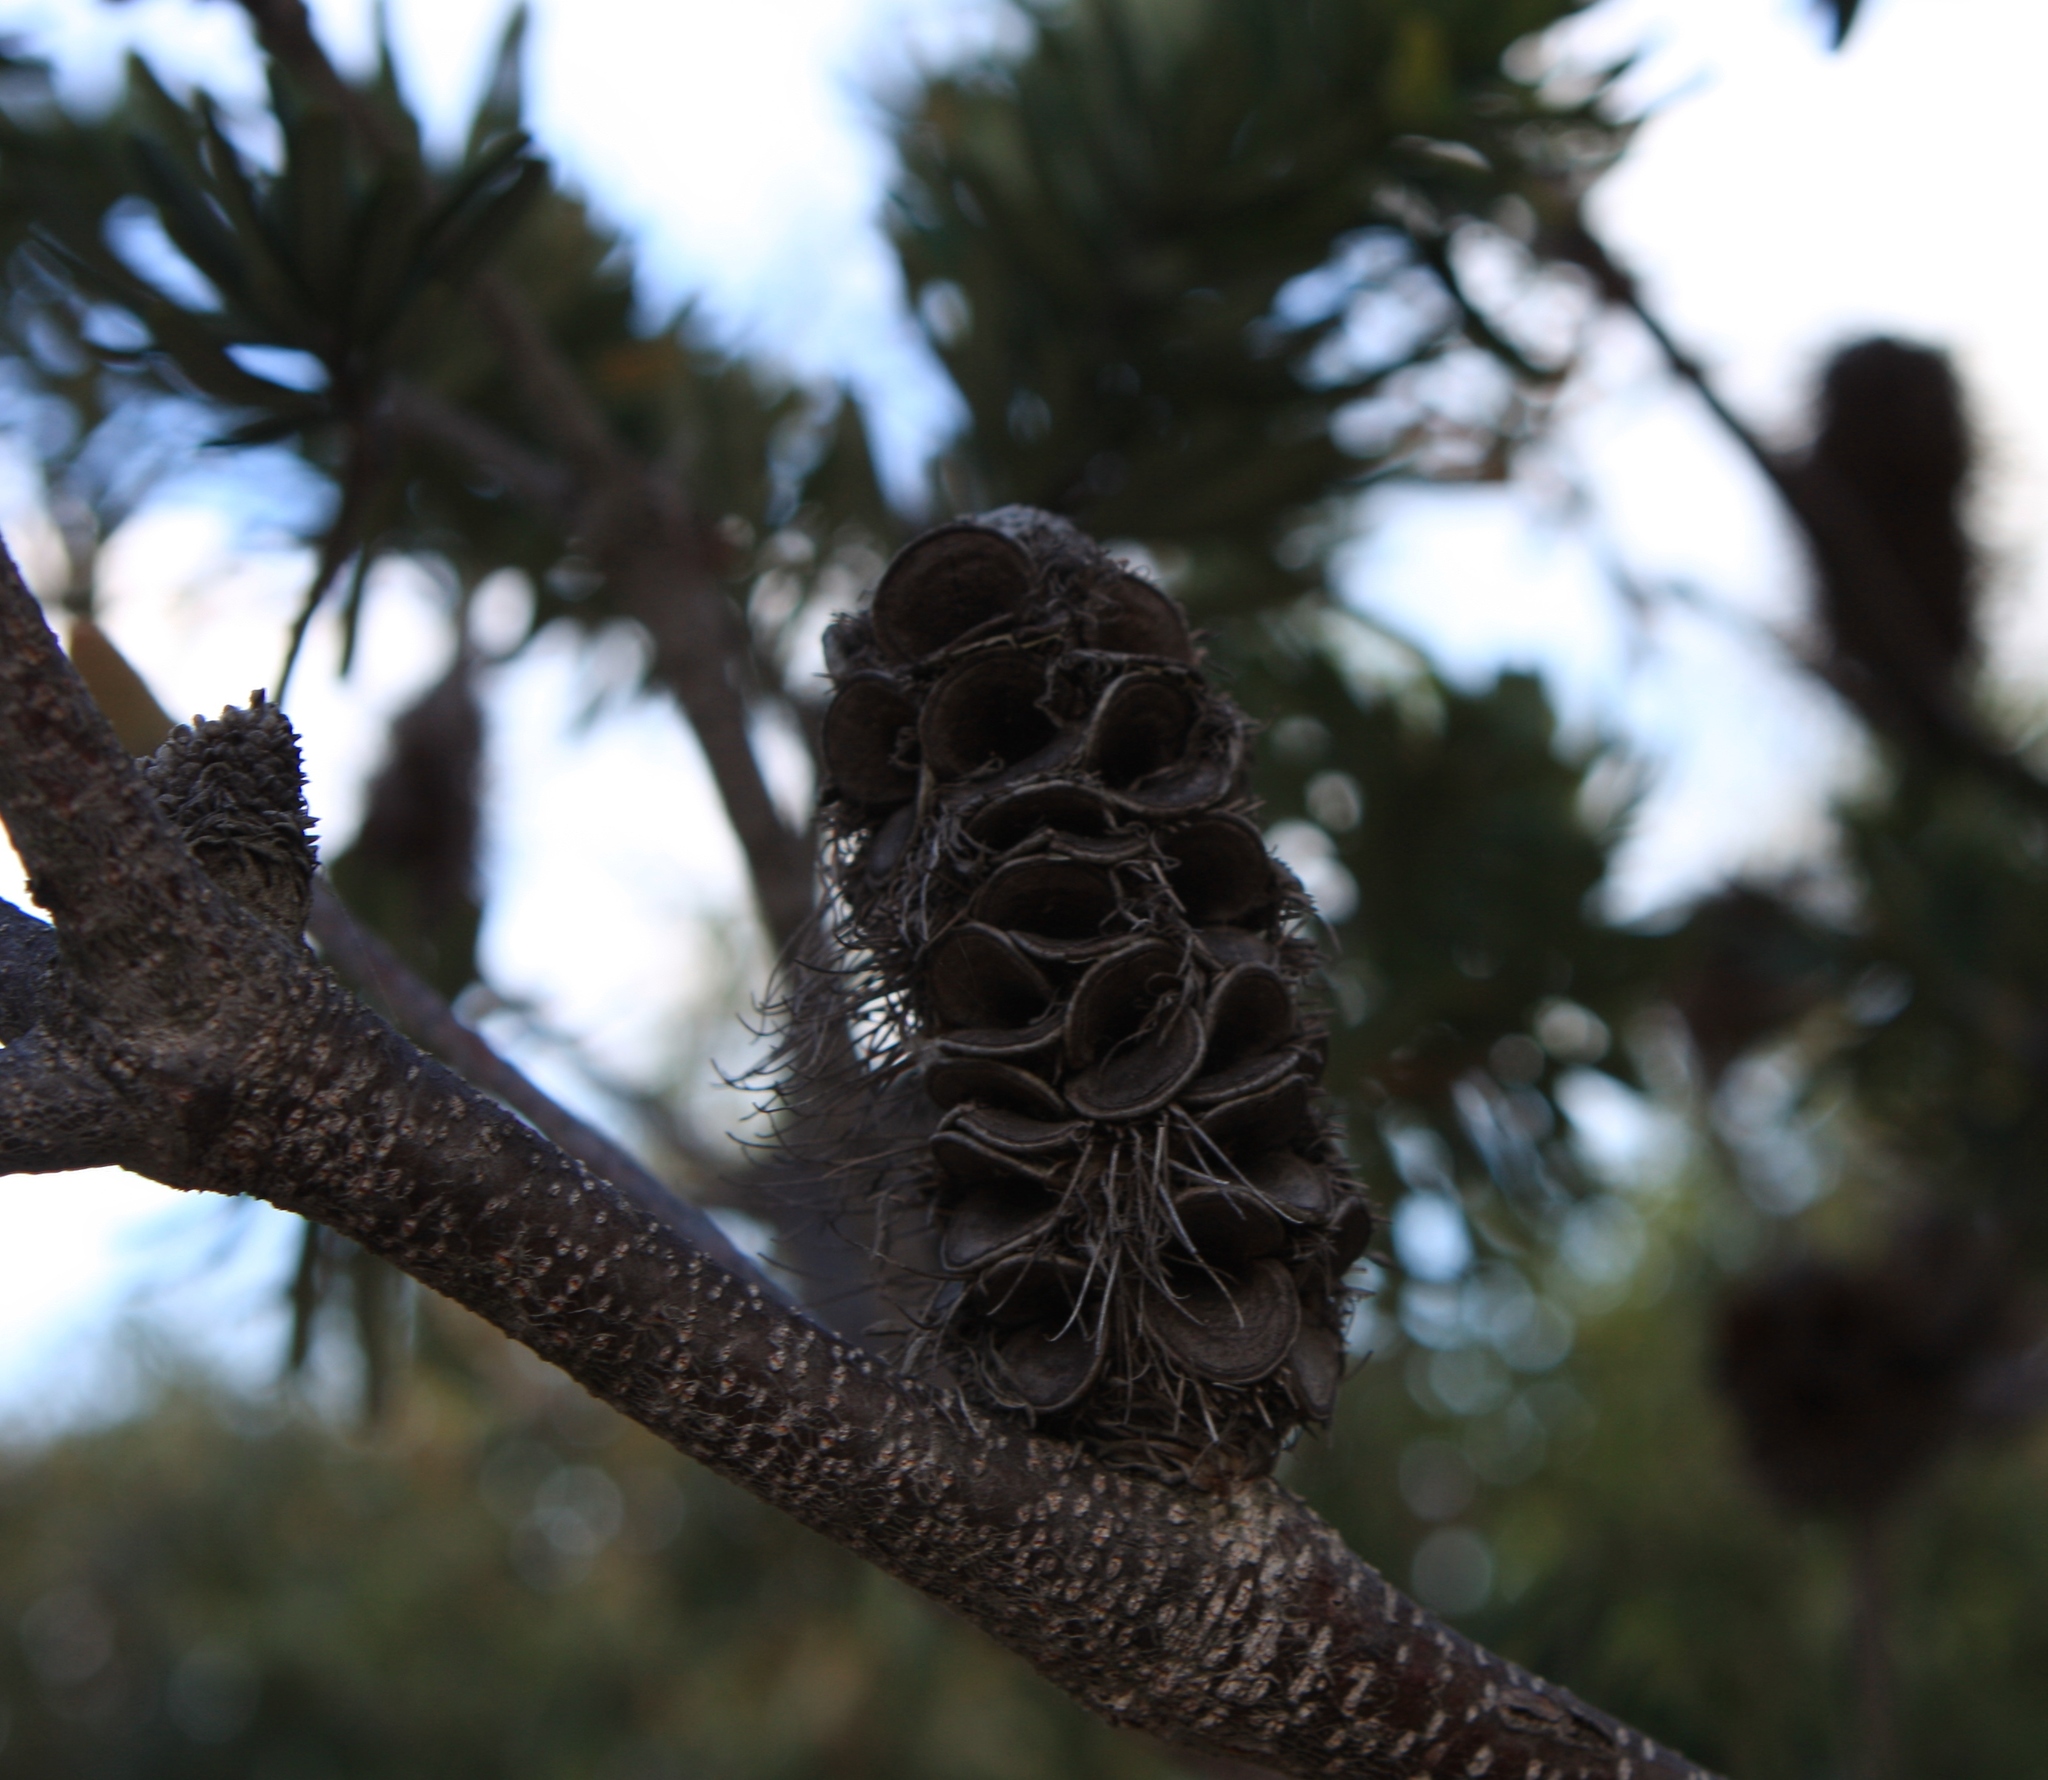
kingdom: Plantae
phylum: Tracheophyta
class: Magnoliopsida
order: Proteales
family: Proteaceae
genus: Banksia
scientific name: Banksia marginata
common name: Silver banksia
